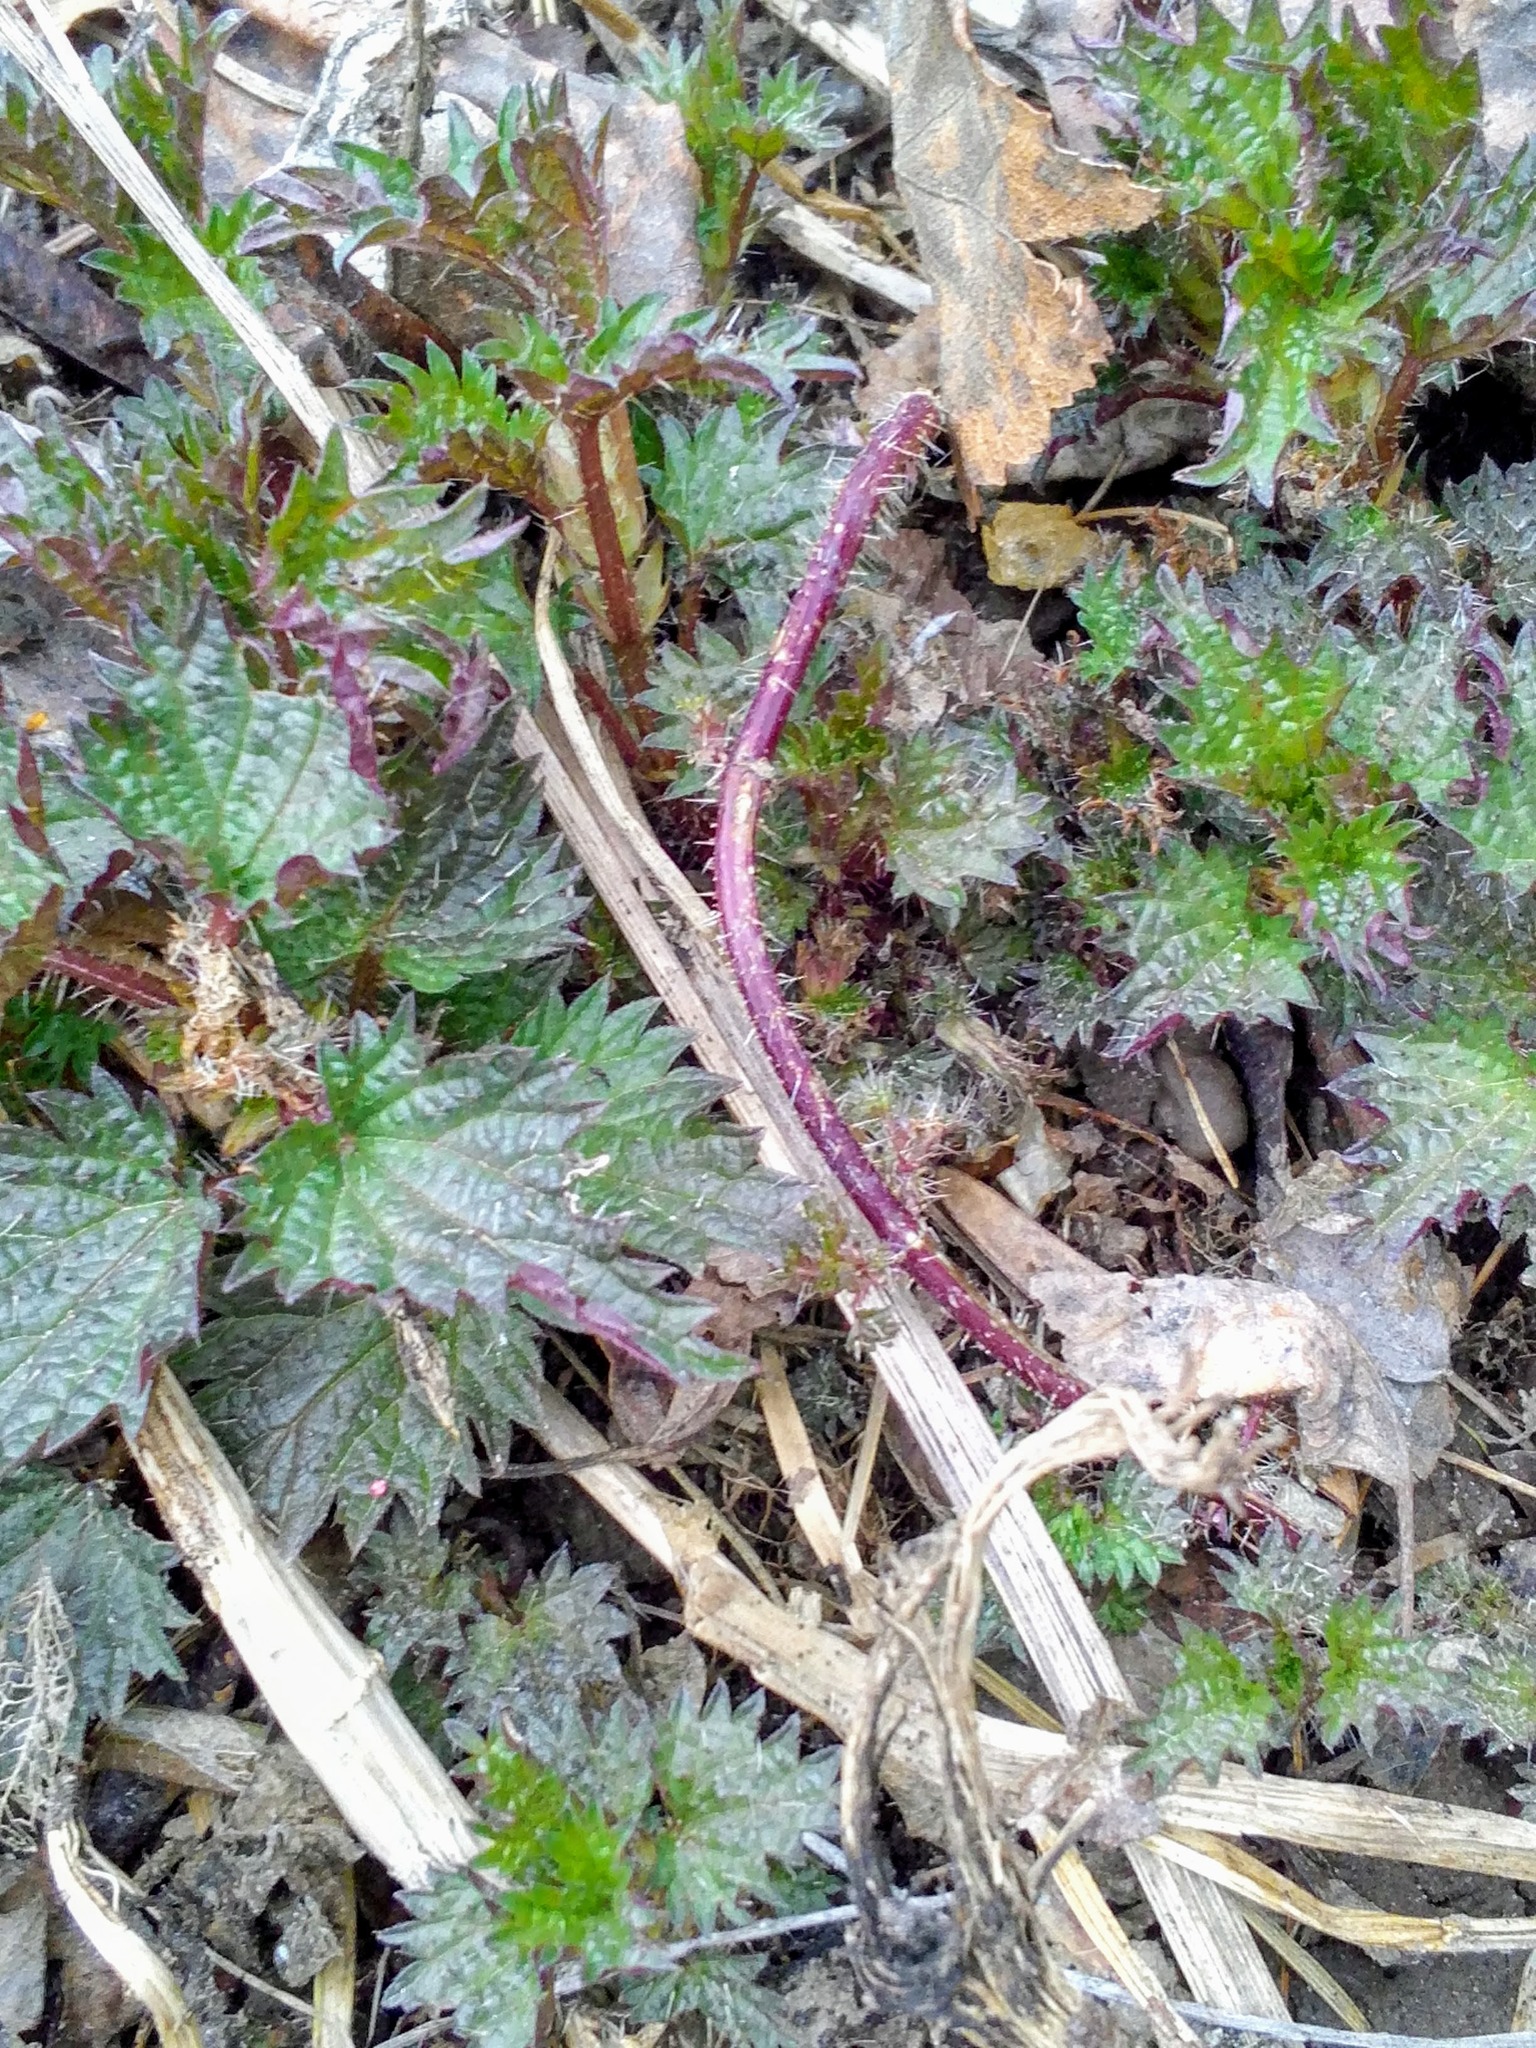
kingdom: Plantae
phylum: Tracheophyta
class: Magnoliopsida
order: Rosales
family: Urticaceae
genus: Urtica
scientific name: Urtica dioica
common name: Common nettle
